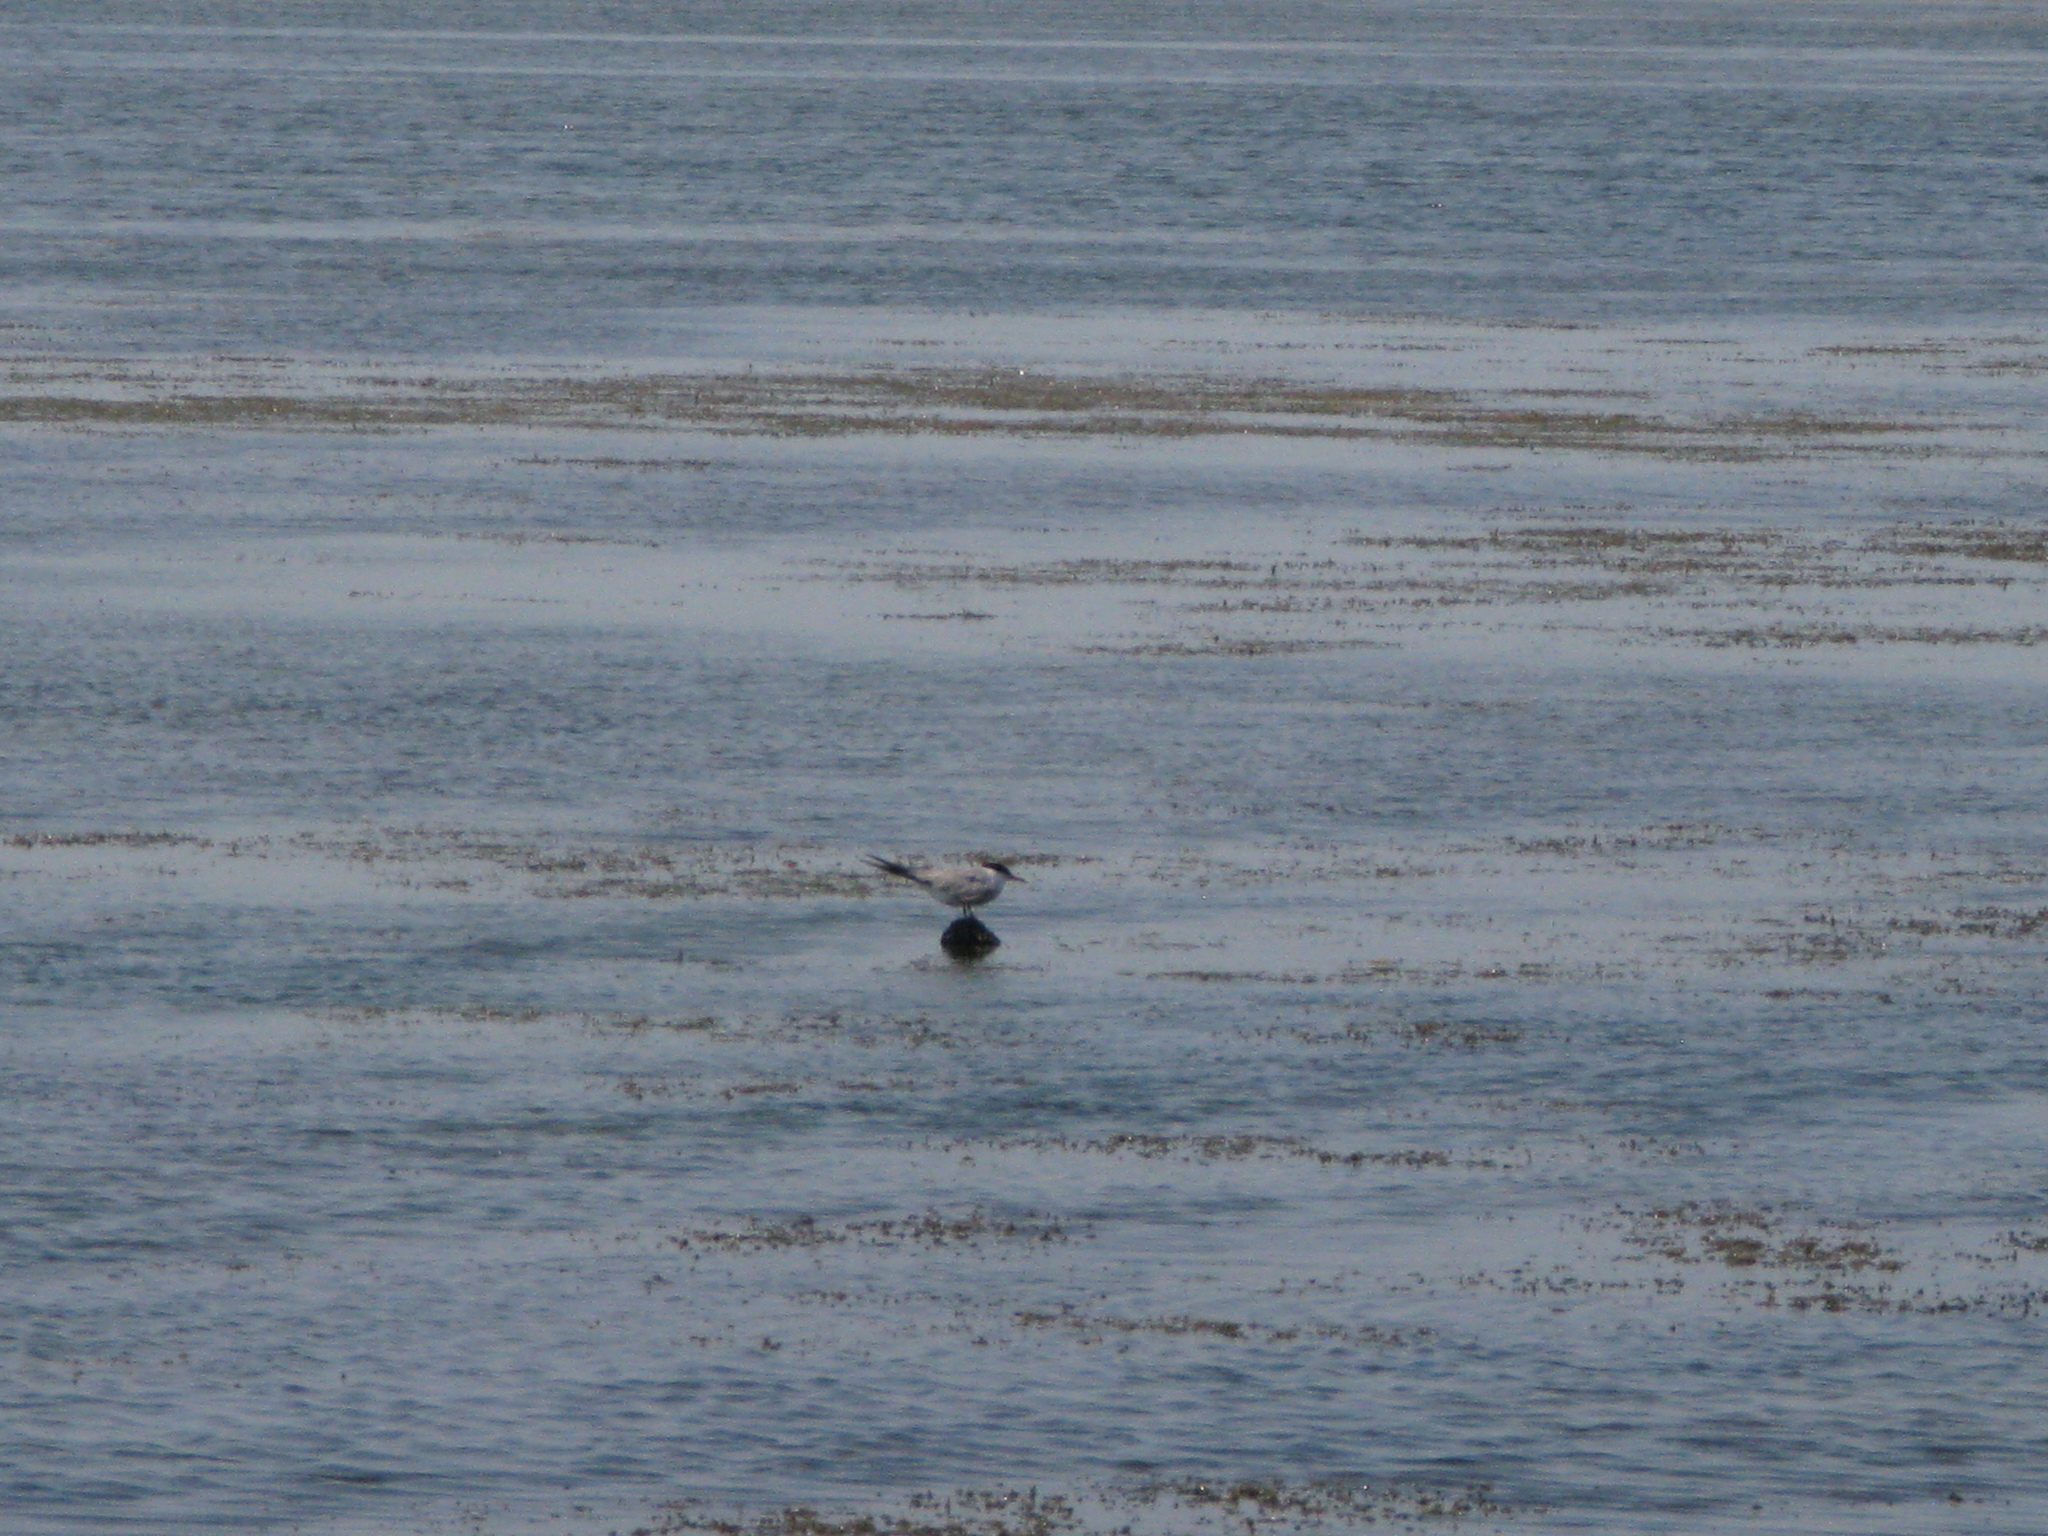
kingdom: Animalia
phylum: Chordata
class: Aves
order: Charadriiformes
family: Laridae
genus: Sterna
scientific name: Sterna hirundo
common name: Common tern
